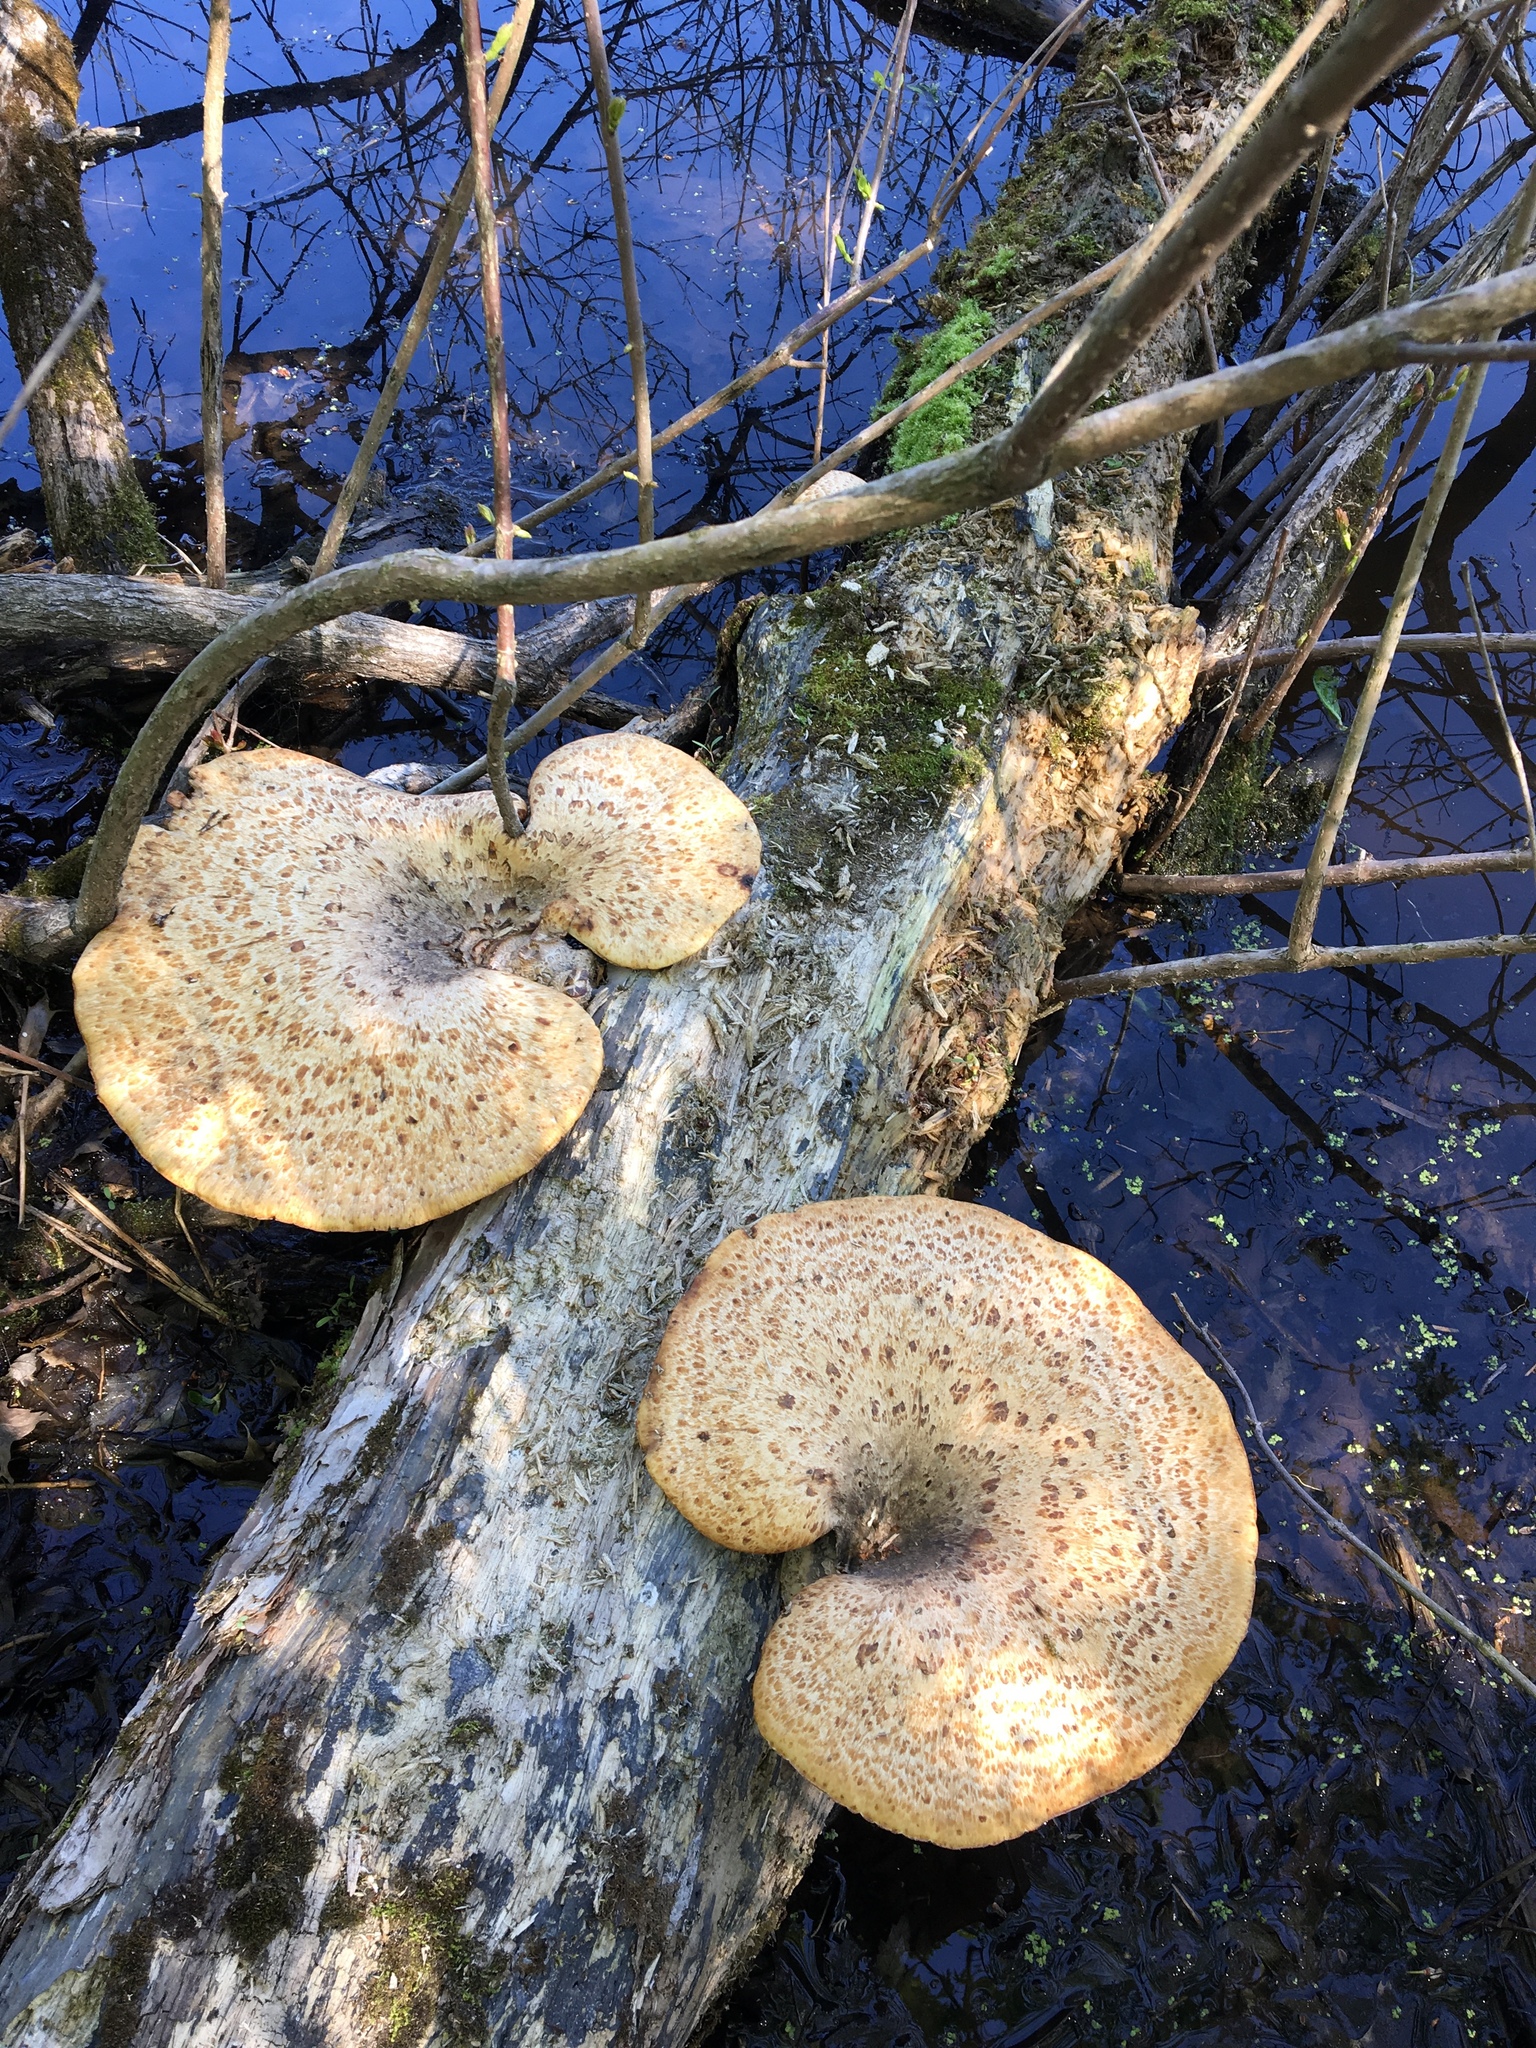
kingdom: Fungi
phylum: Basidiomycota
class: Agaricomycetes
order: Polyporales
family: Polyporaceae
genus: Cerioporus
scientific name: Cerioporus squamosus
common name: Dryad's saddle
